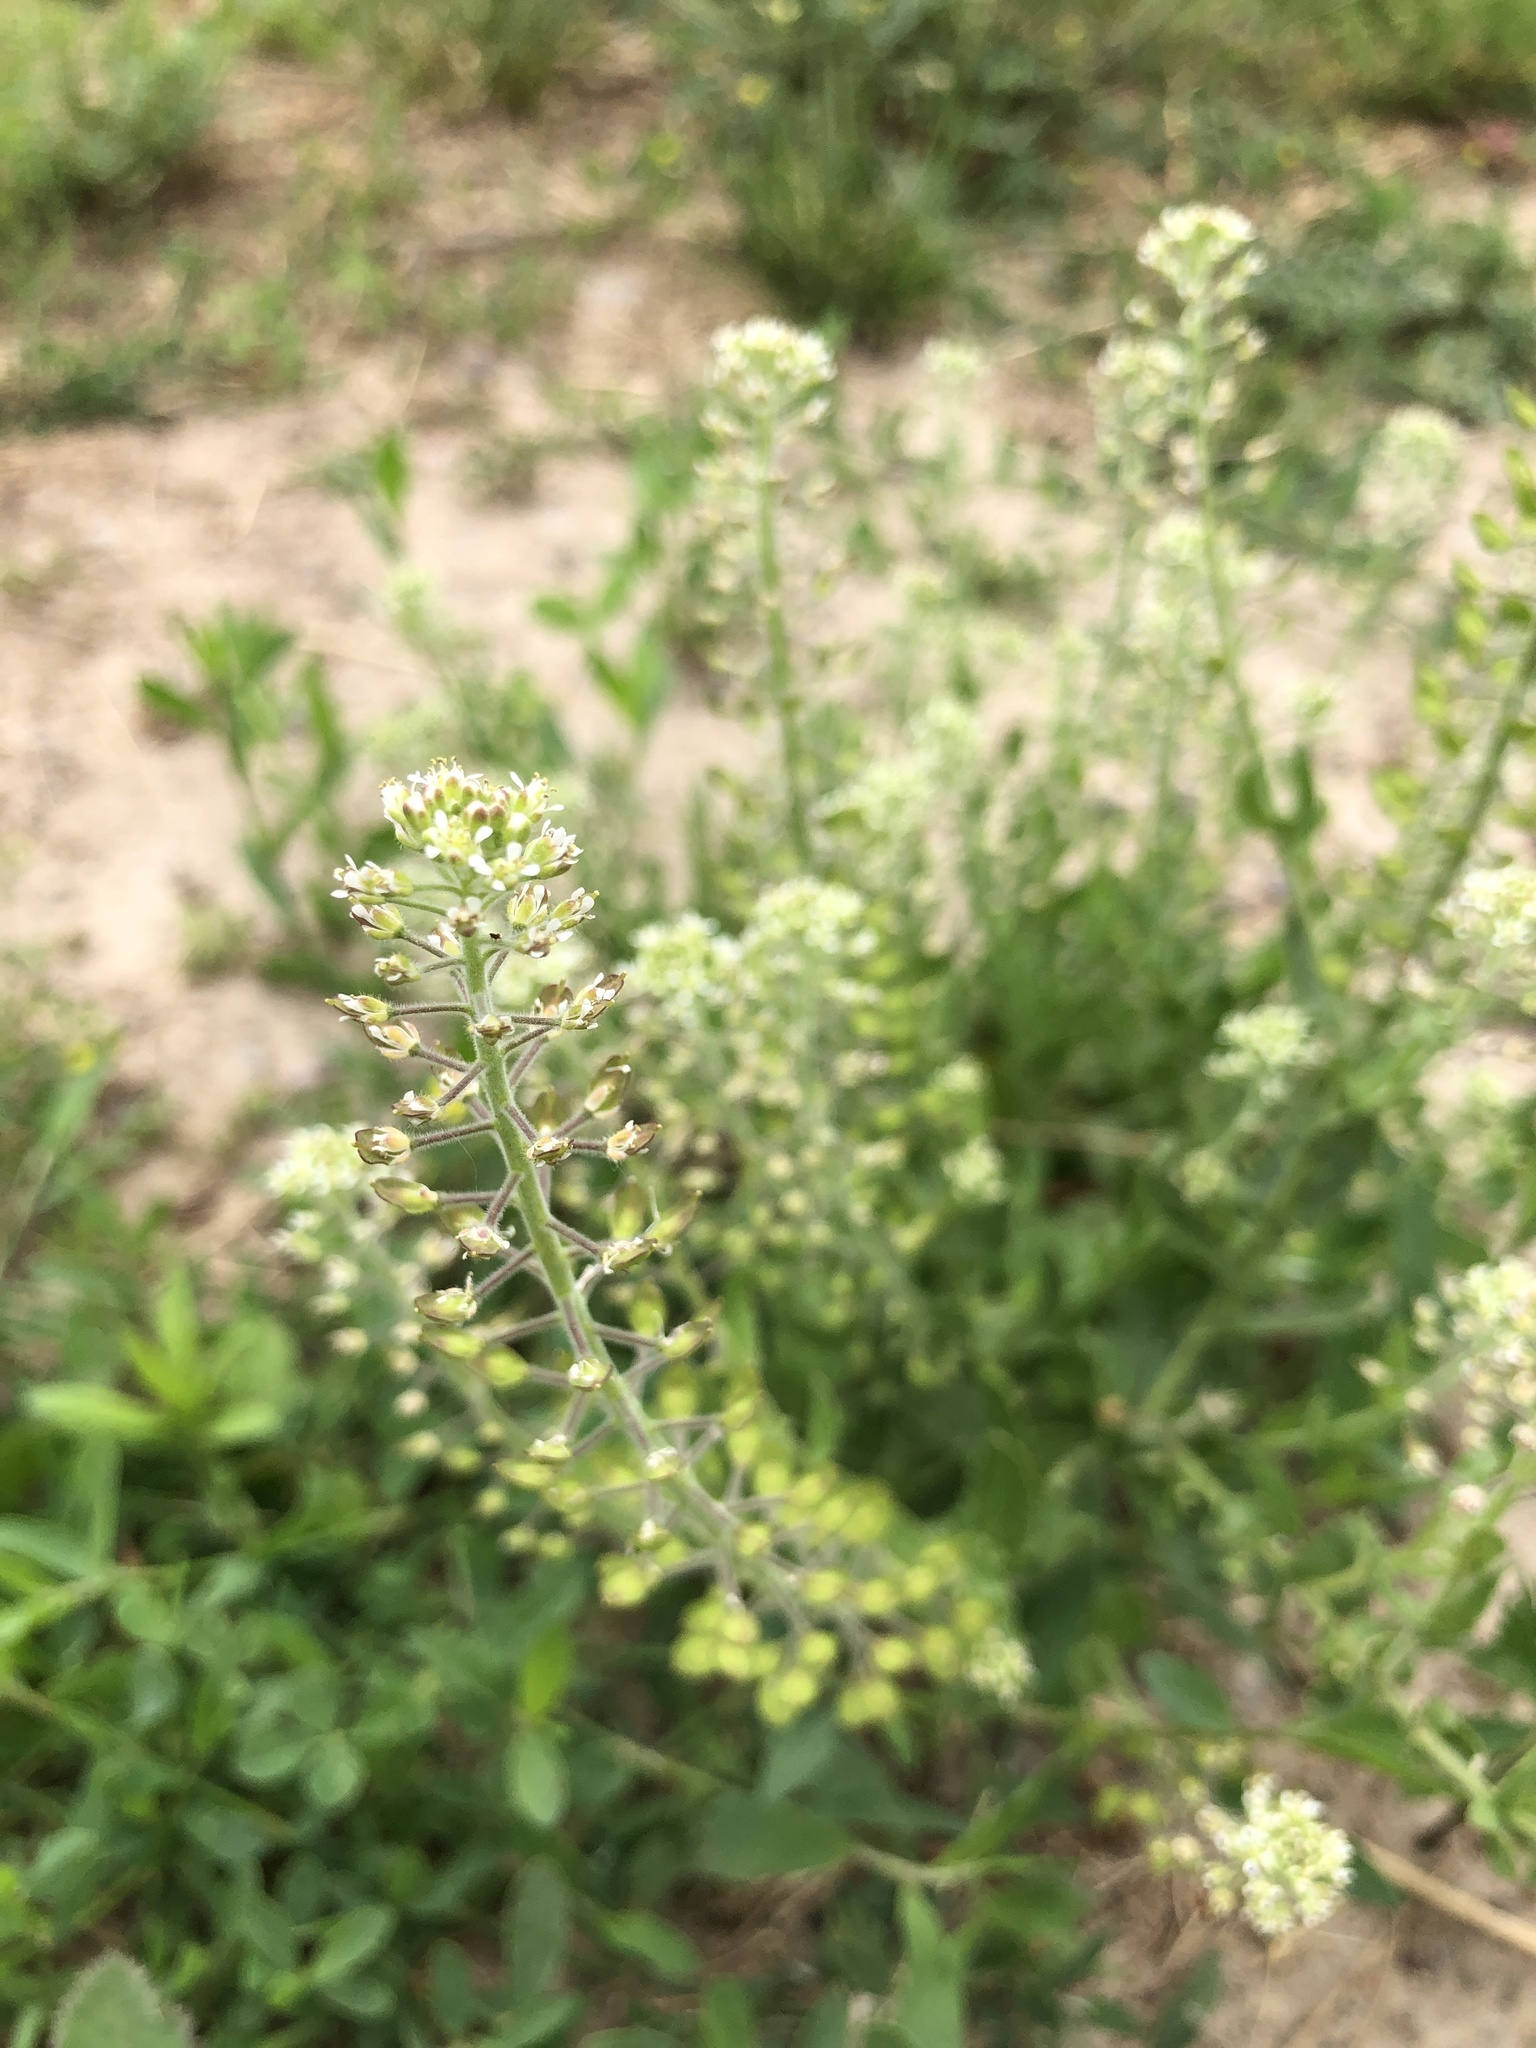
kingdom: Plantae
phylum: Tracheophyta
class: Magnoliopsida
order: Brassicales
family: Brassicaceae
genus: Lepidium
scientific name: Lepidium campestre
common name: Field pepperwort
